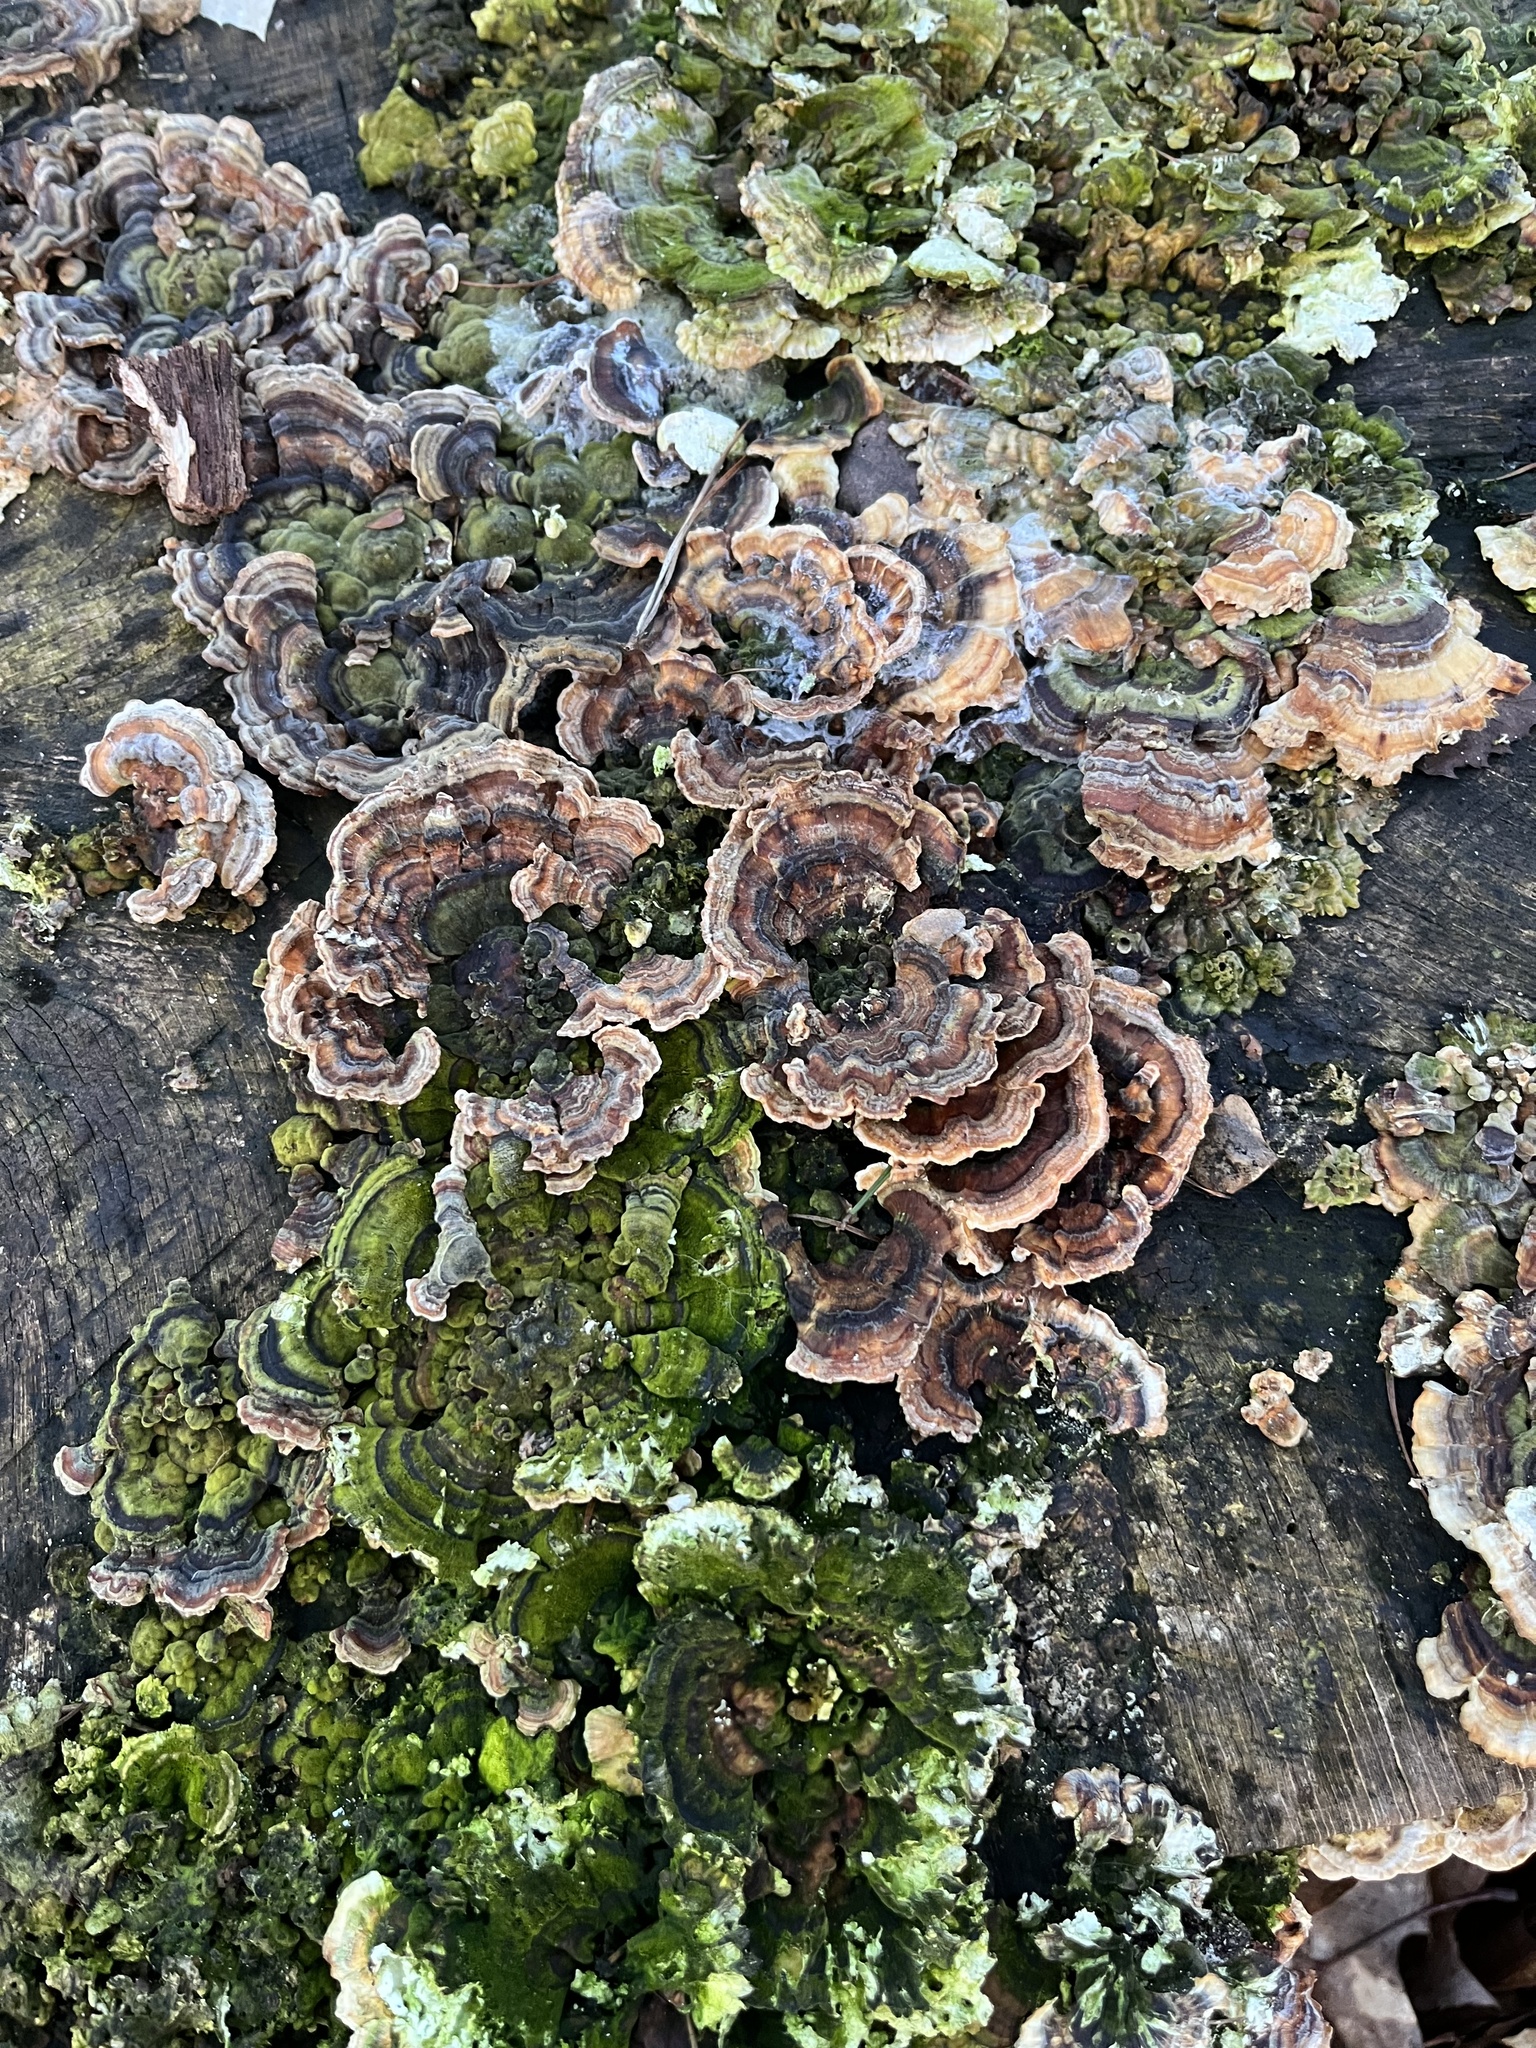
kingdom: Fungi
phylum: Basidiomycota
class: Agaricomycetes
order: Polyporales
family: Polyporaceae
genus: Trametes
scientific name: Trametes versicolor
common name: Turkeytail
